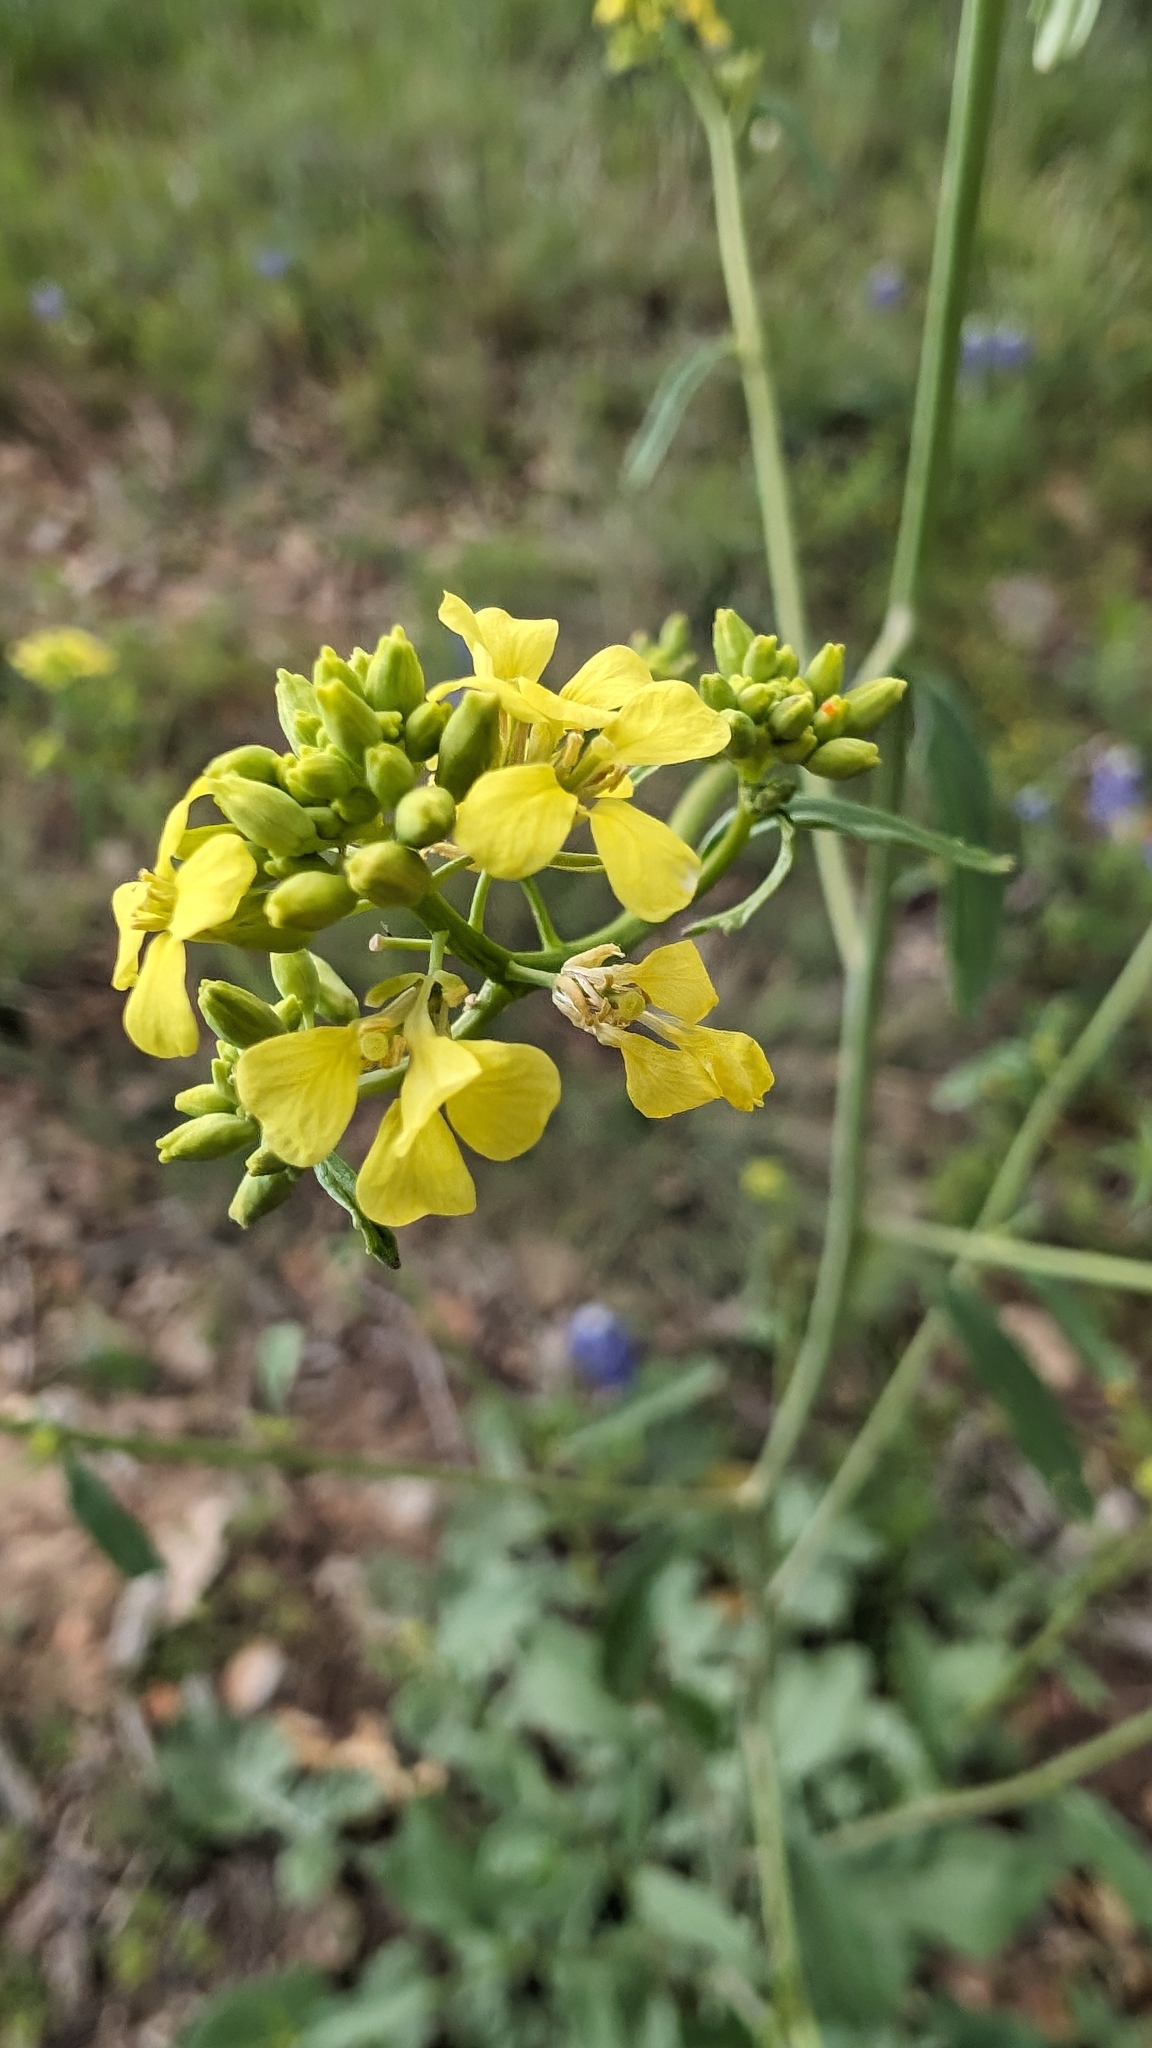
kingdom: Plantae
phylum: Tracheophyta
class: Magnoliopsida
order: Brassicales
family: Brassicaceae
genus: Rapistrum
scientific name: Rapistrum rugosum
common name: Annual bastardcabbage
